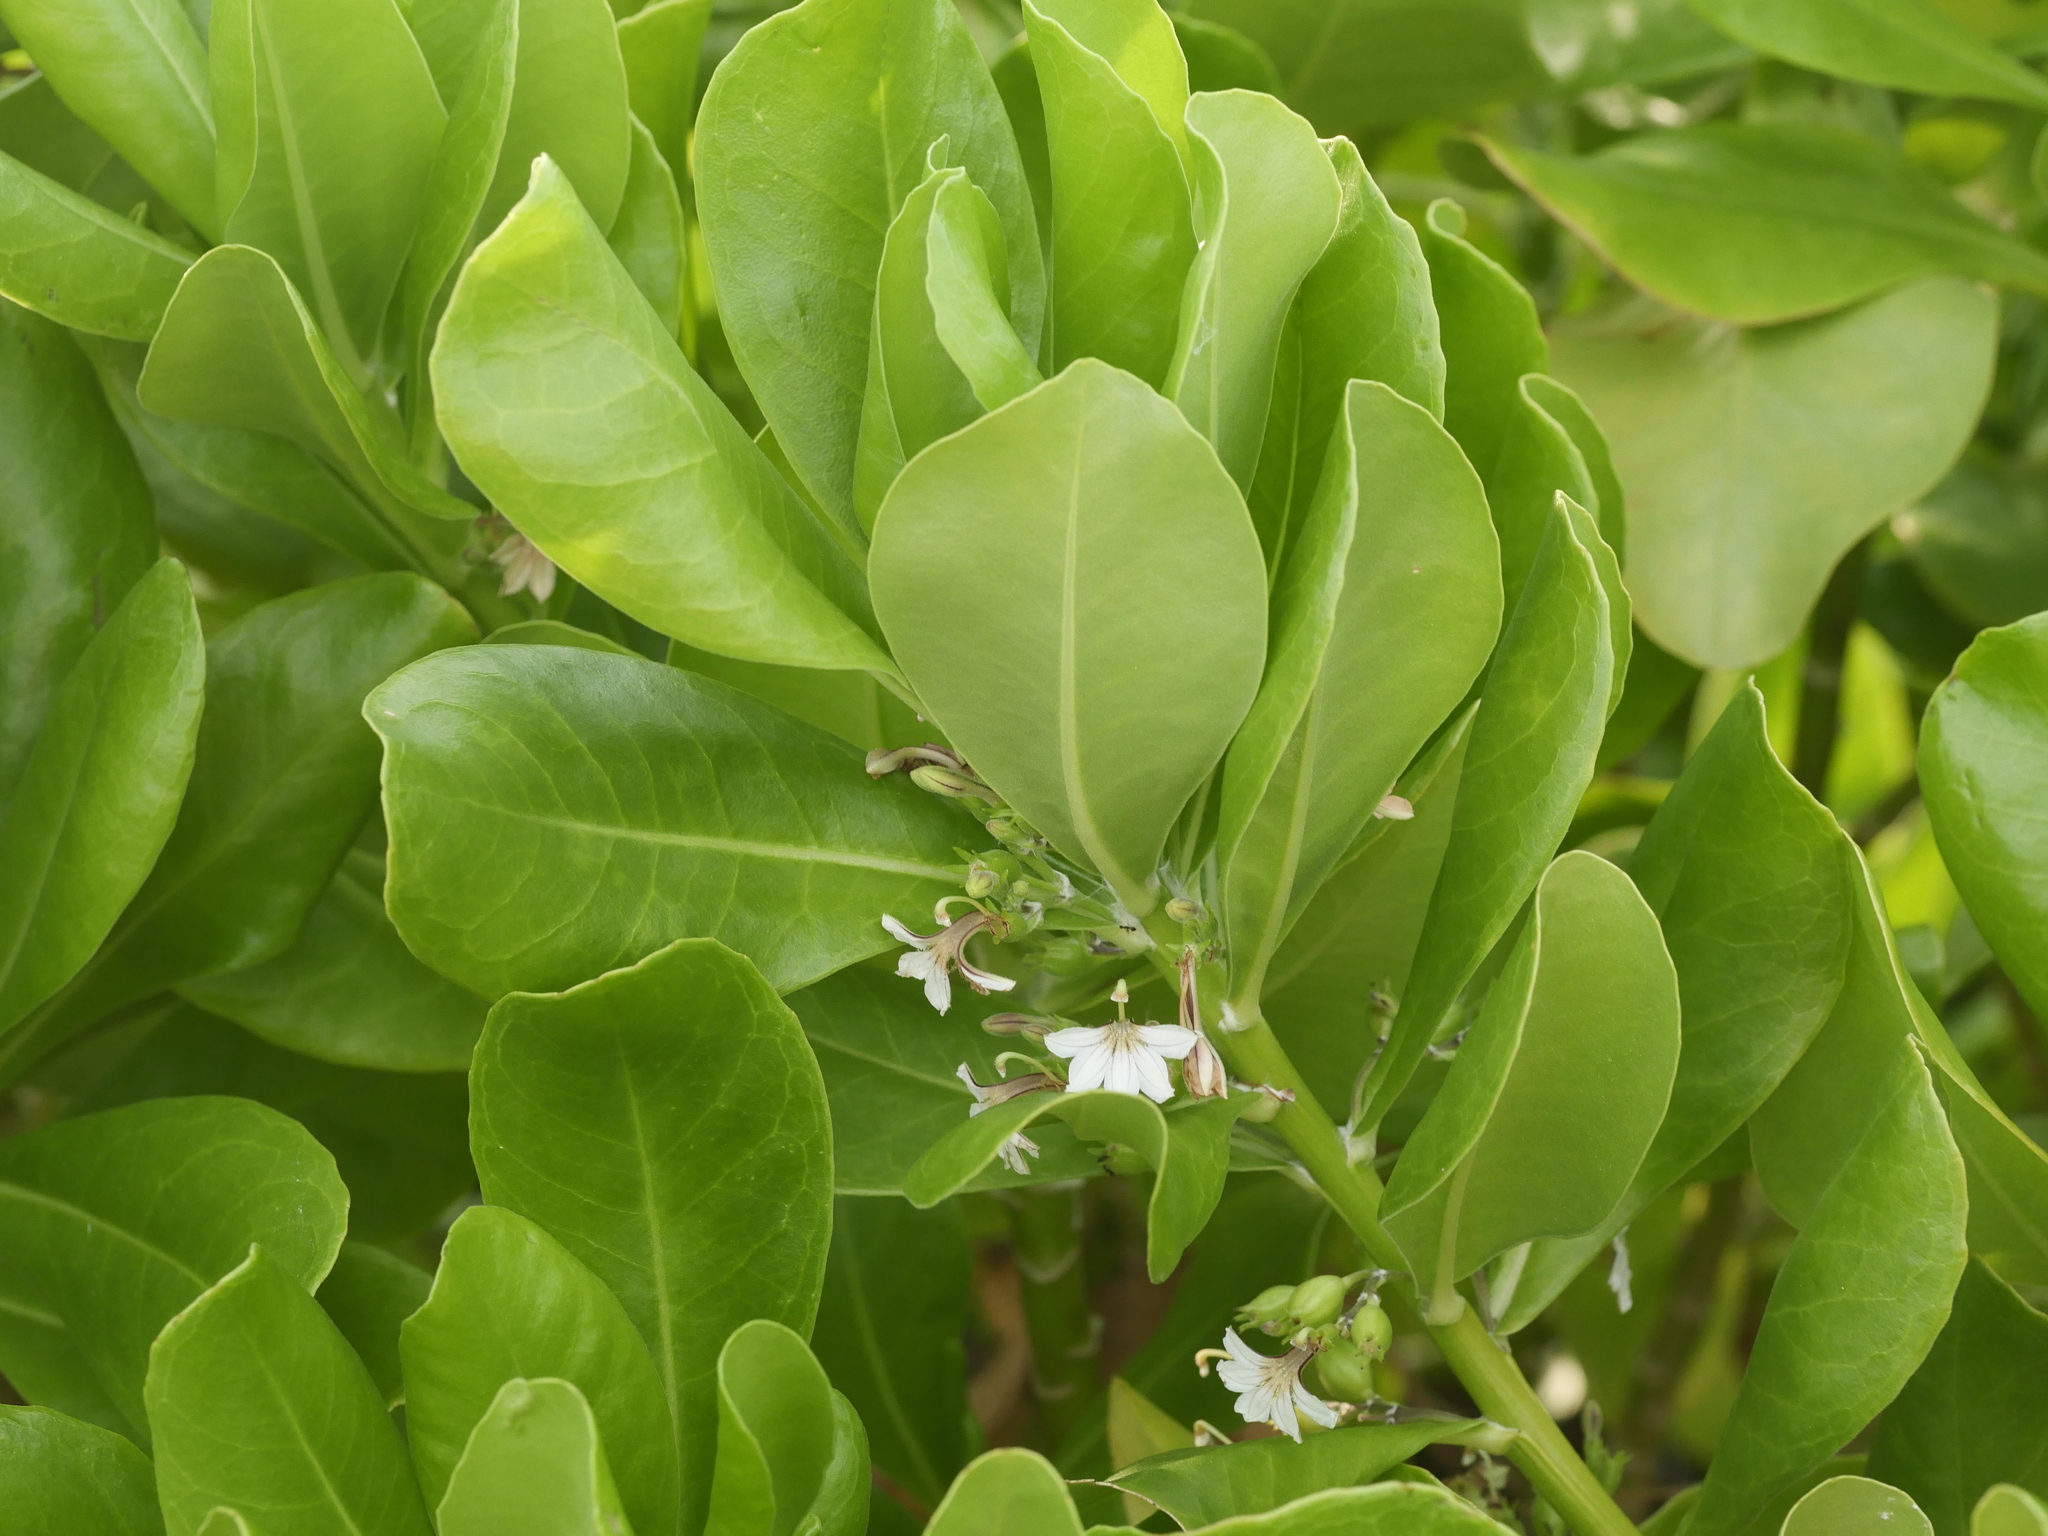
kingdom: Plantae
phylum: Tracheophyta
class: Magnoliopsida
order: Asterales
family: Goodeniaceae
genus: Scaevola
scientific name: Scaevola taccada
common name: Sea lettucetree
